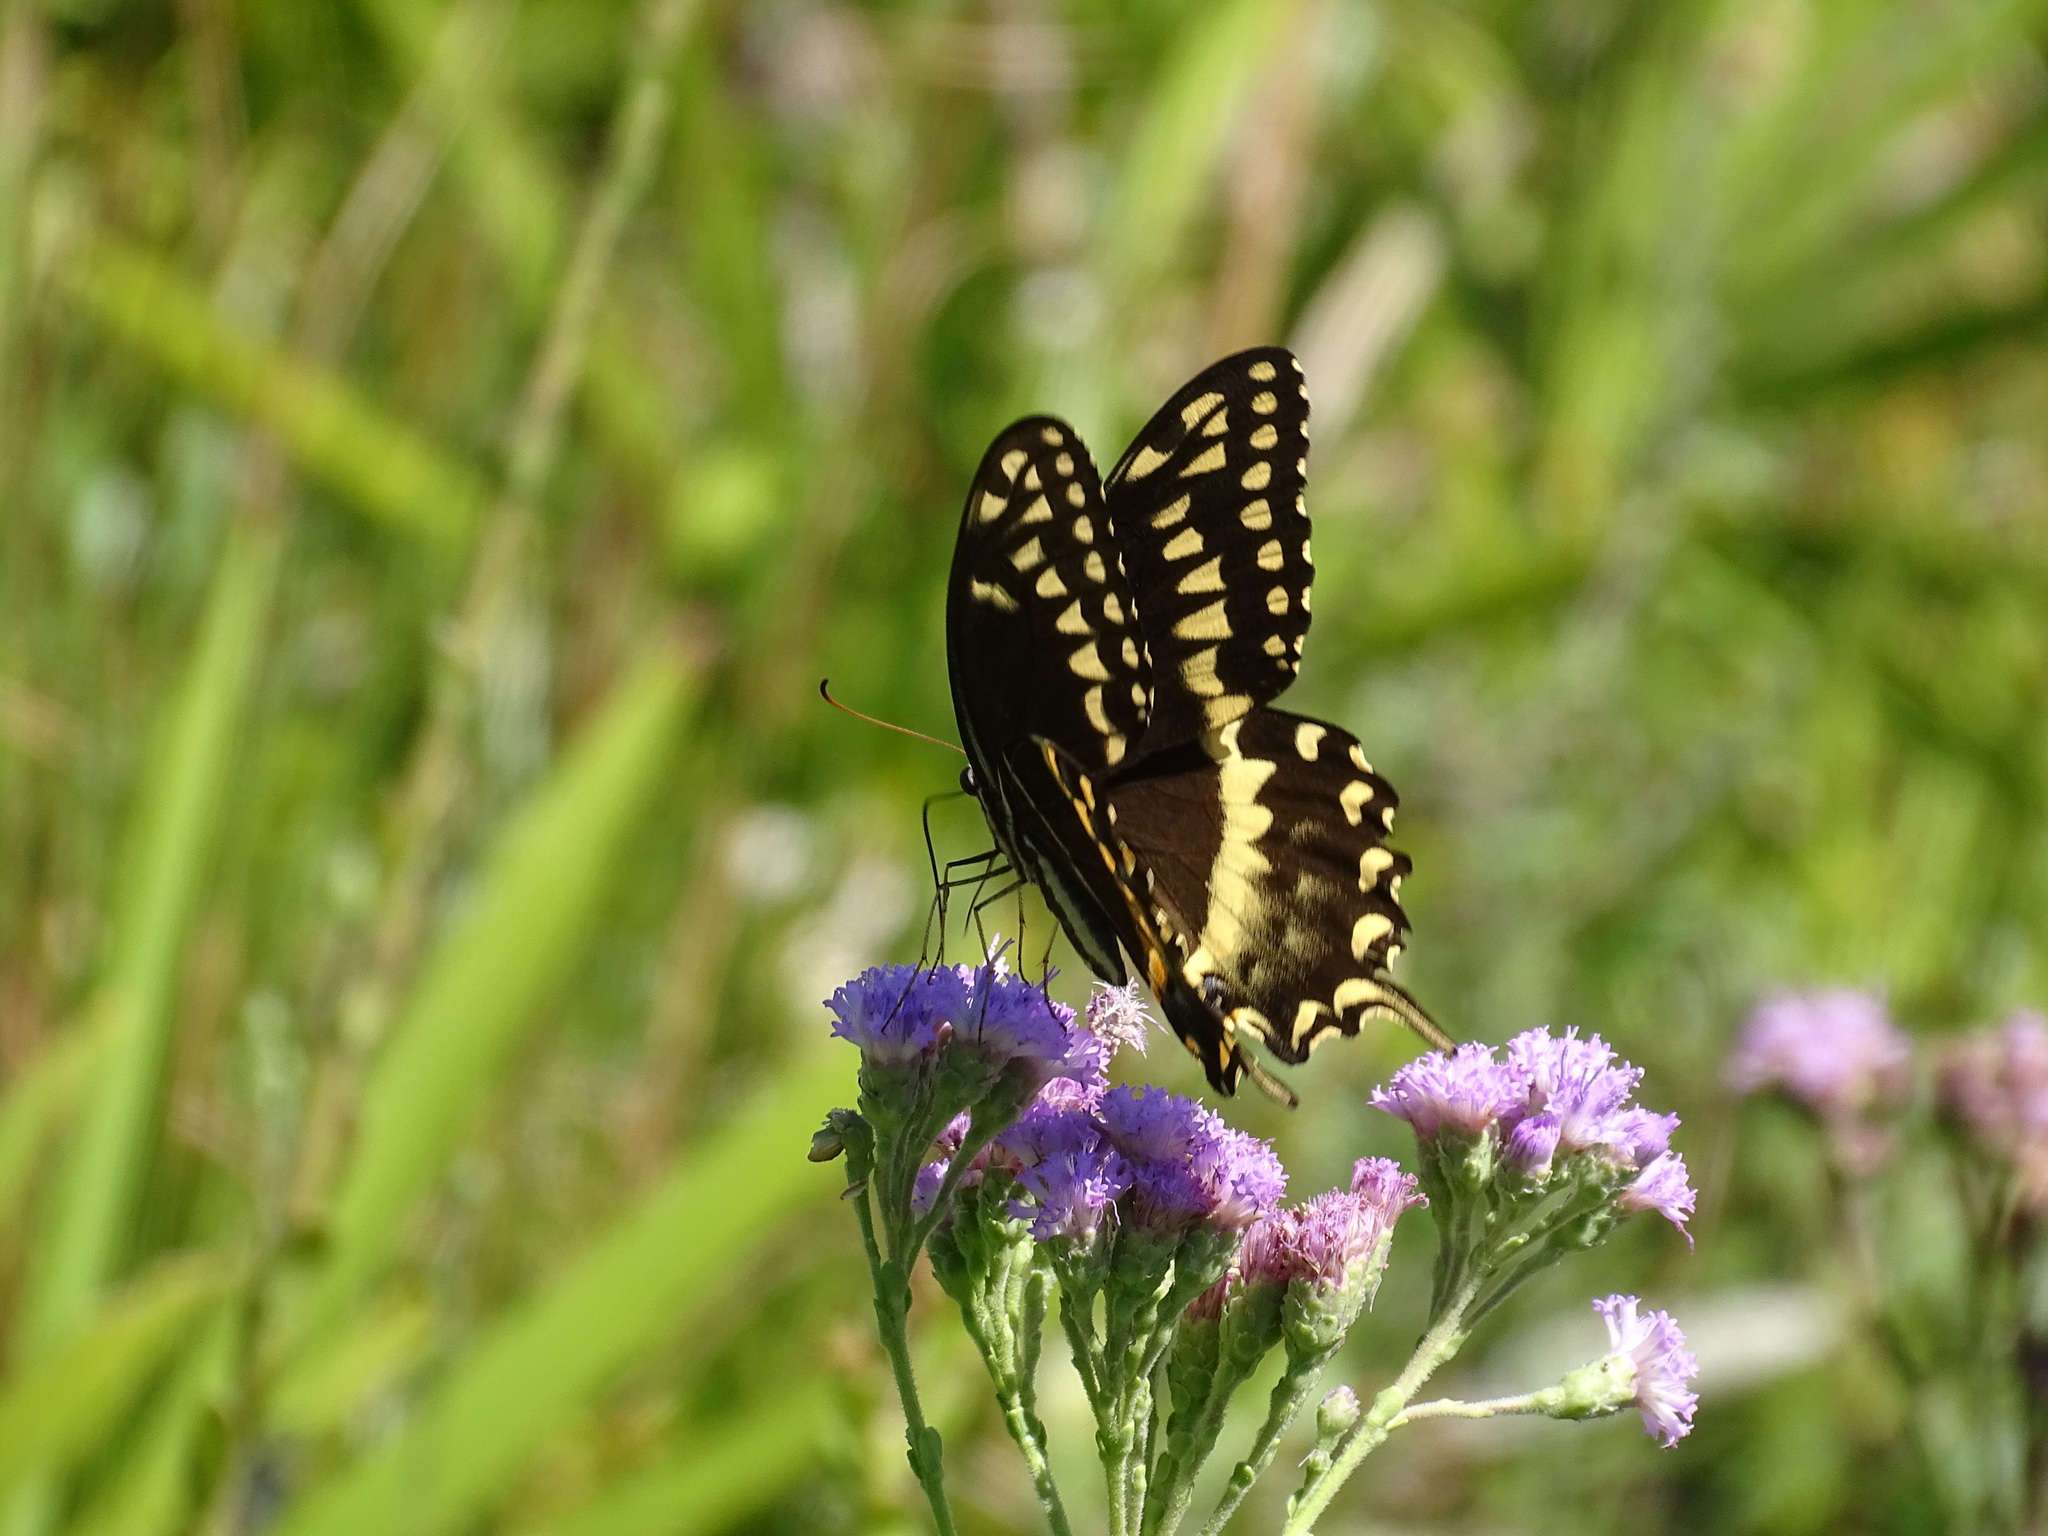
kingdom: Animalia
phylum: Arthropoda
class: Insecta
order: Lepidoptera
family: Papilionidae
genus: Papilio
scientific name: Papilio palamedes
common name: Palamedes swallowtail
